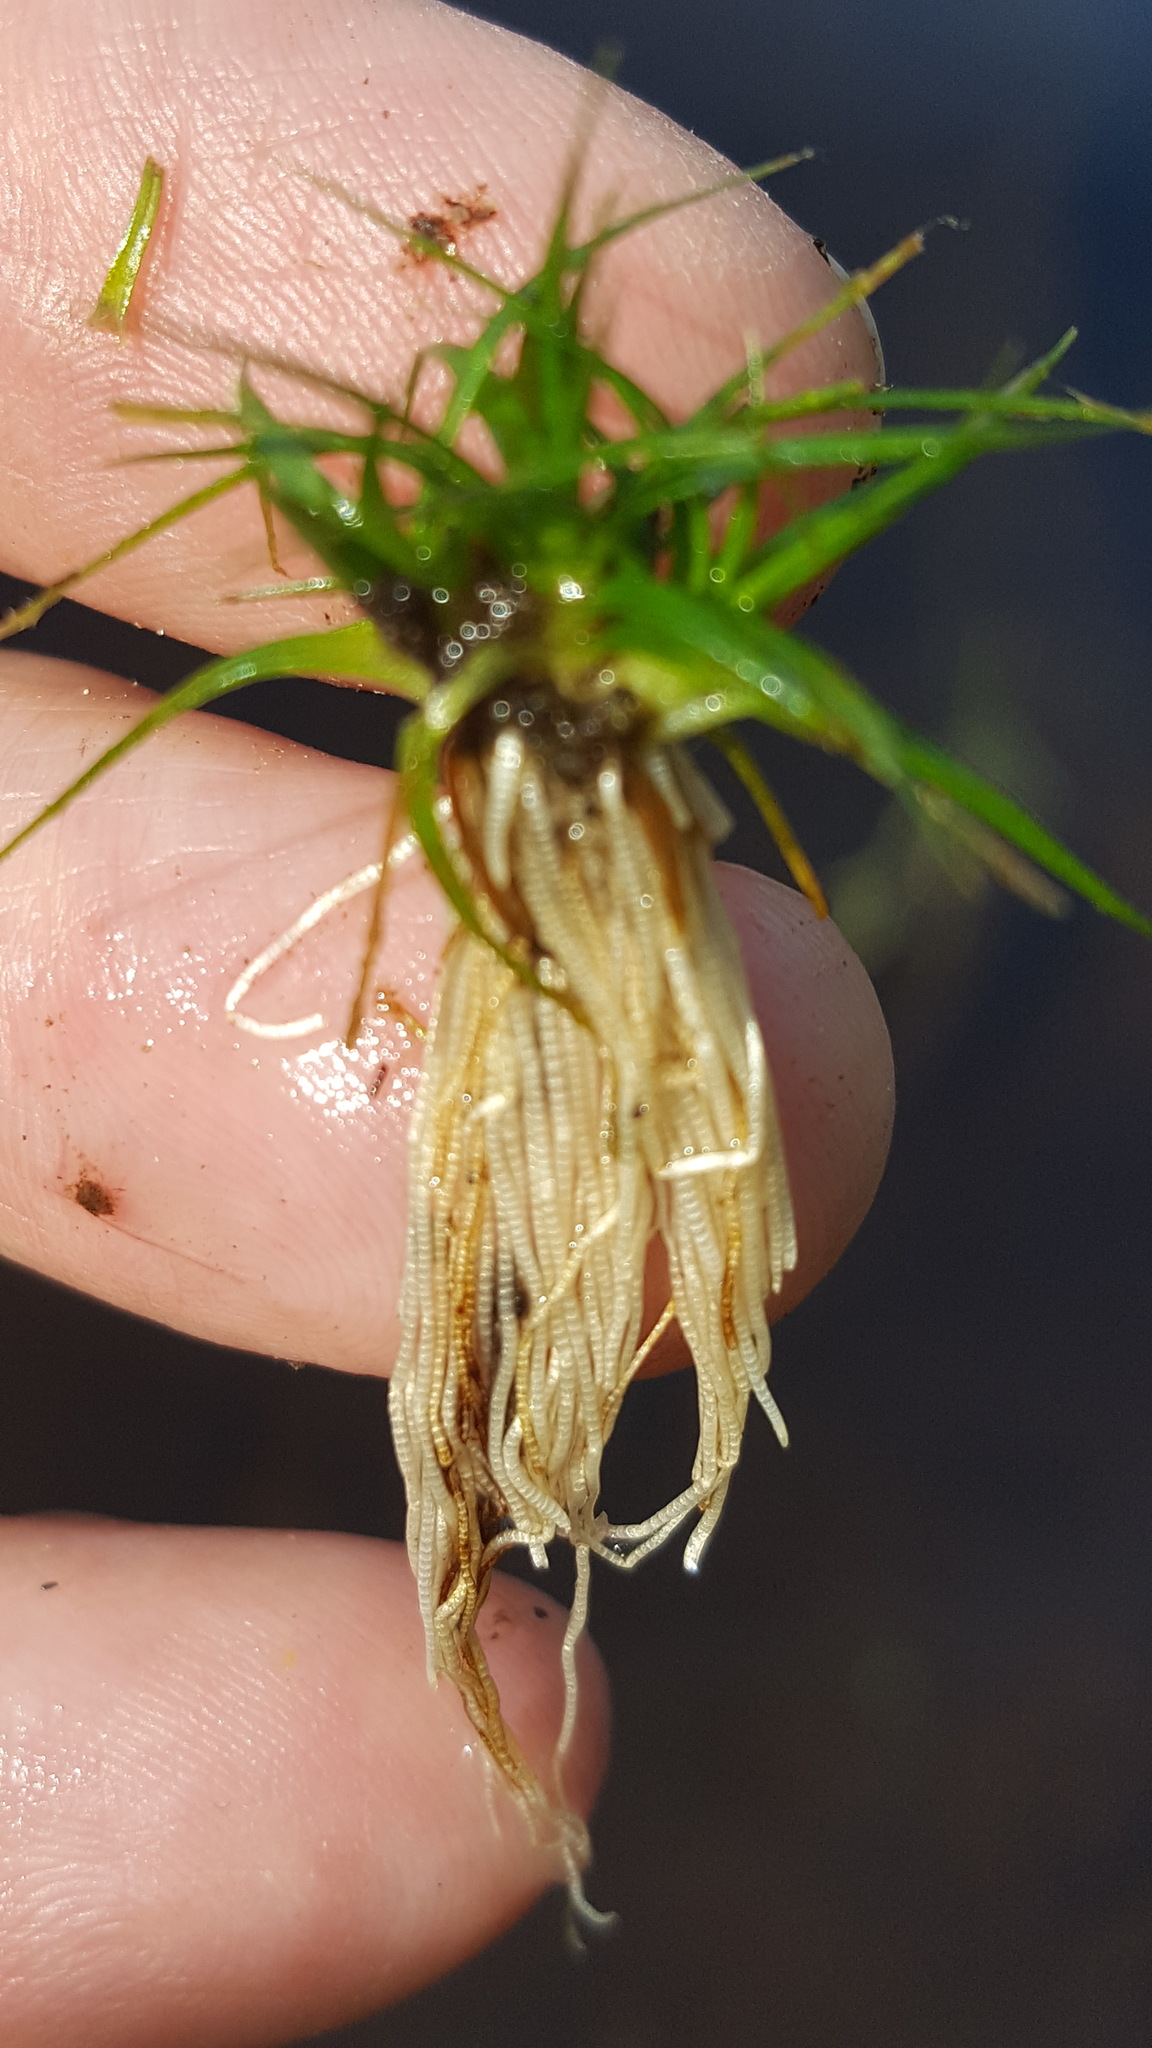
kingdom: Plantae
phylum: Tracheophyta
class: Liliopsida
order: Poales
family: Eriocaulaceae
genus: Eriocaulon
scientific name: Eriocaulon aquaticum
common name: Pipewort
